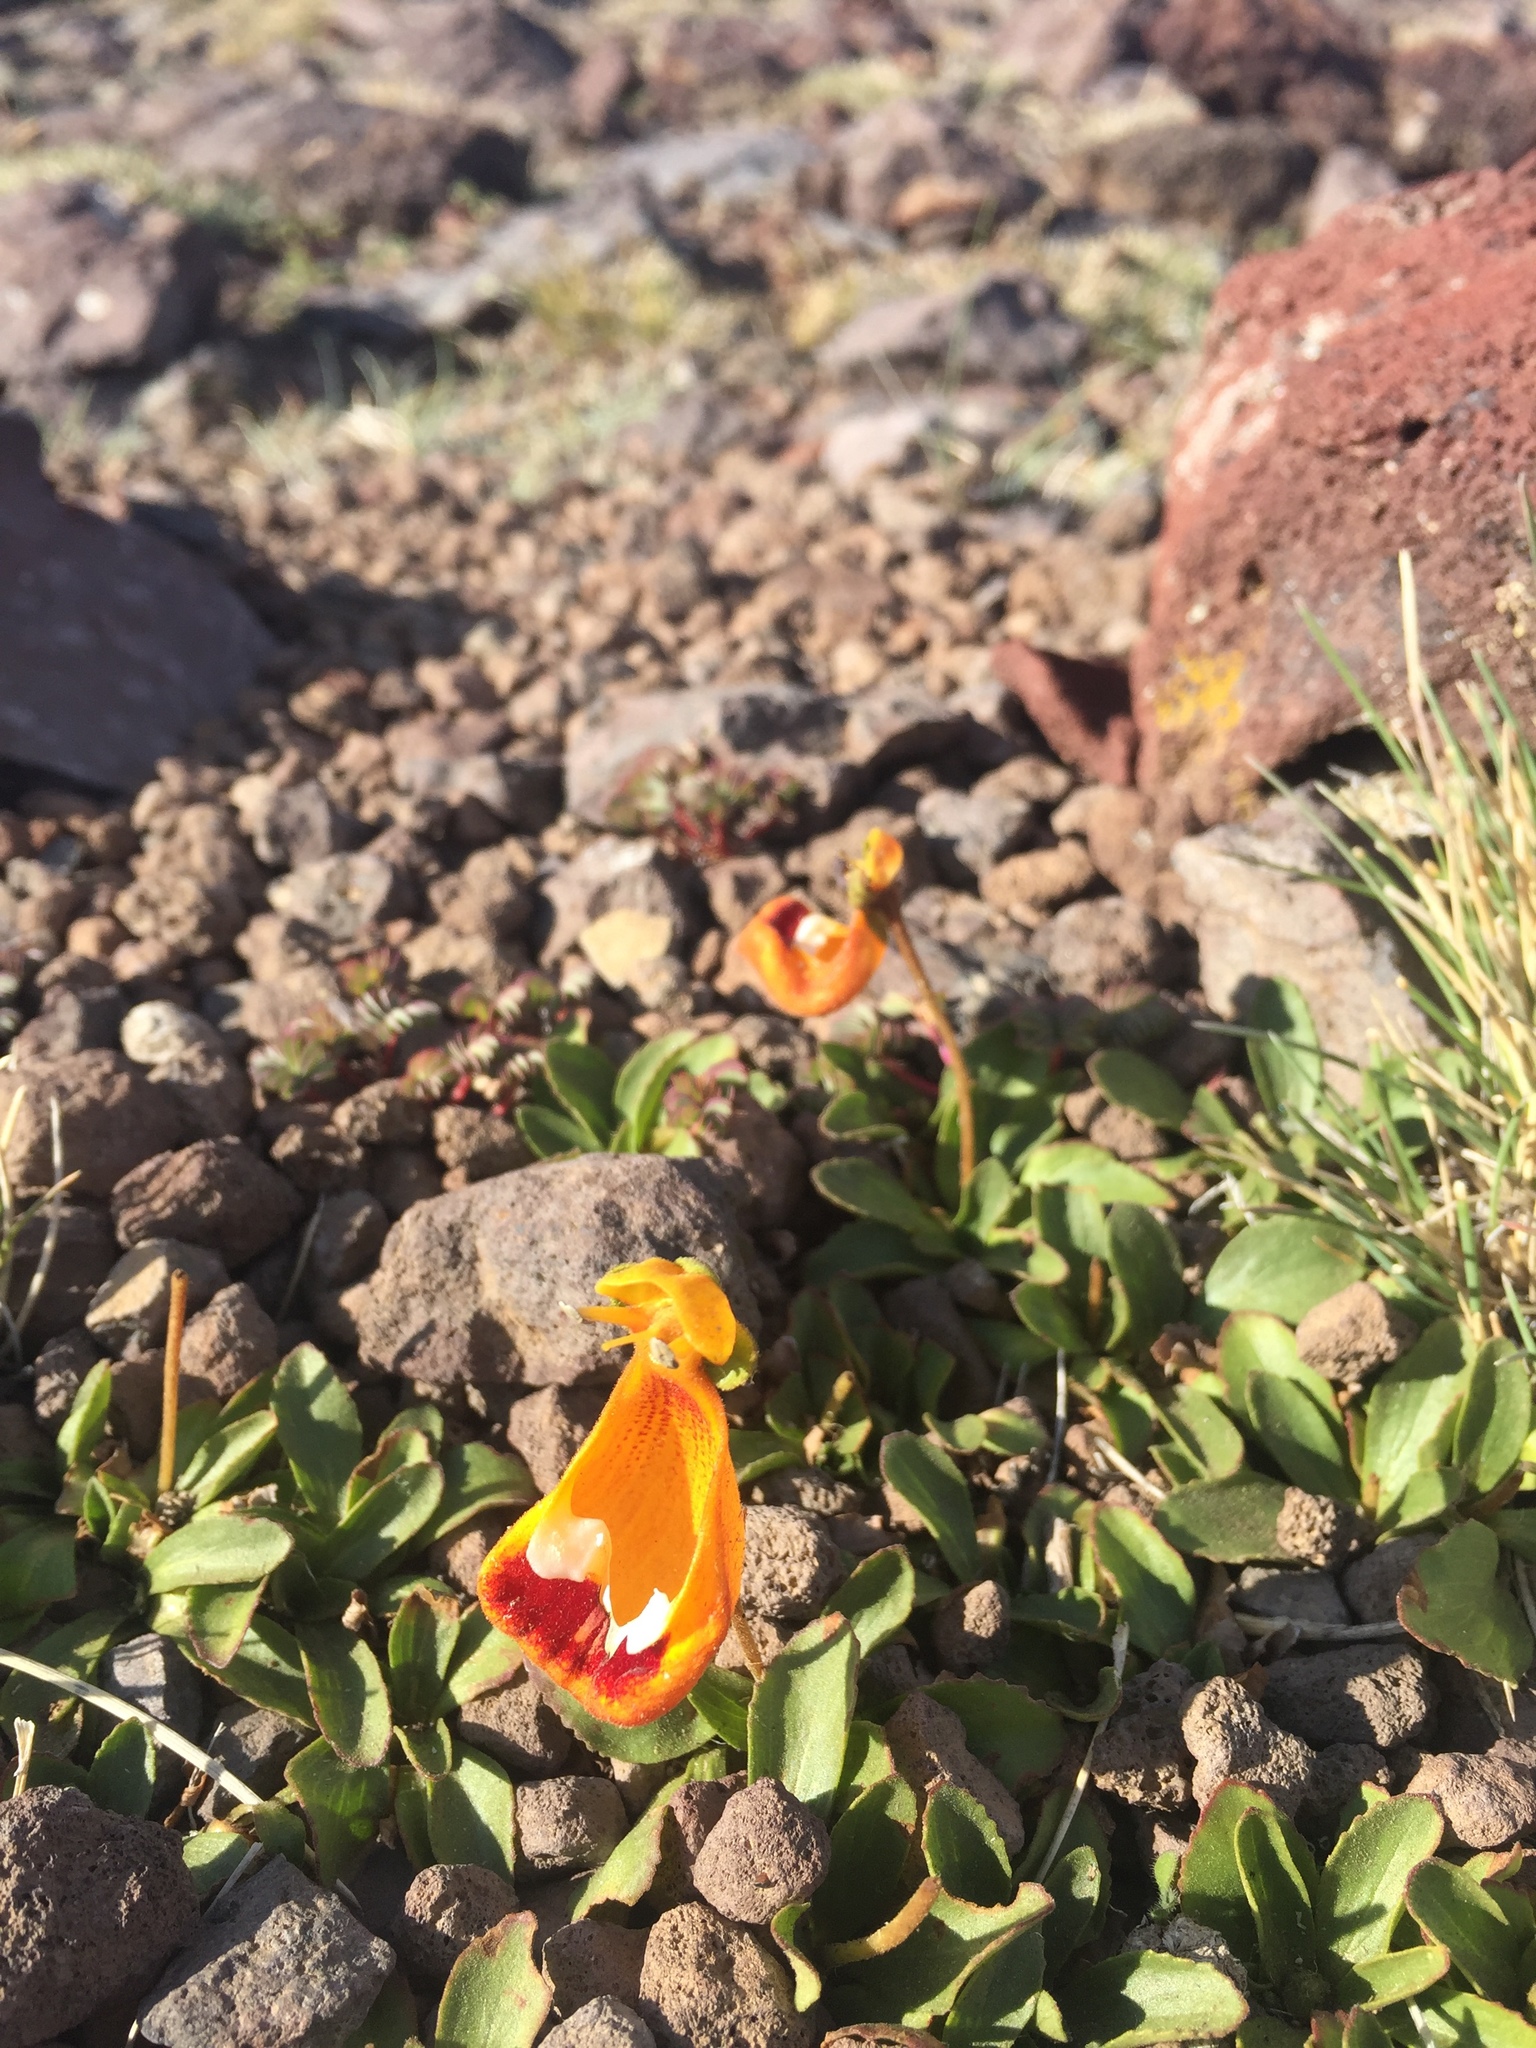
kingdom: Plantae
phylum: Tracheophyta
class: Magnoliopsida
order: Lamiales
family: Calceolariaceae
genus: Calceolaria
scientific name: Calceolaria uniflora
